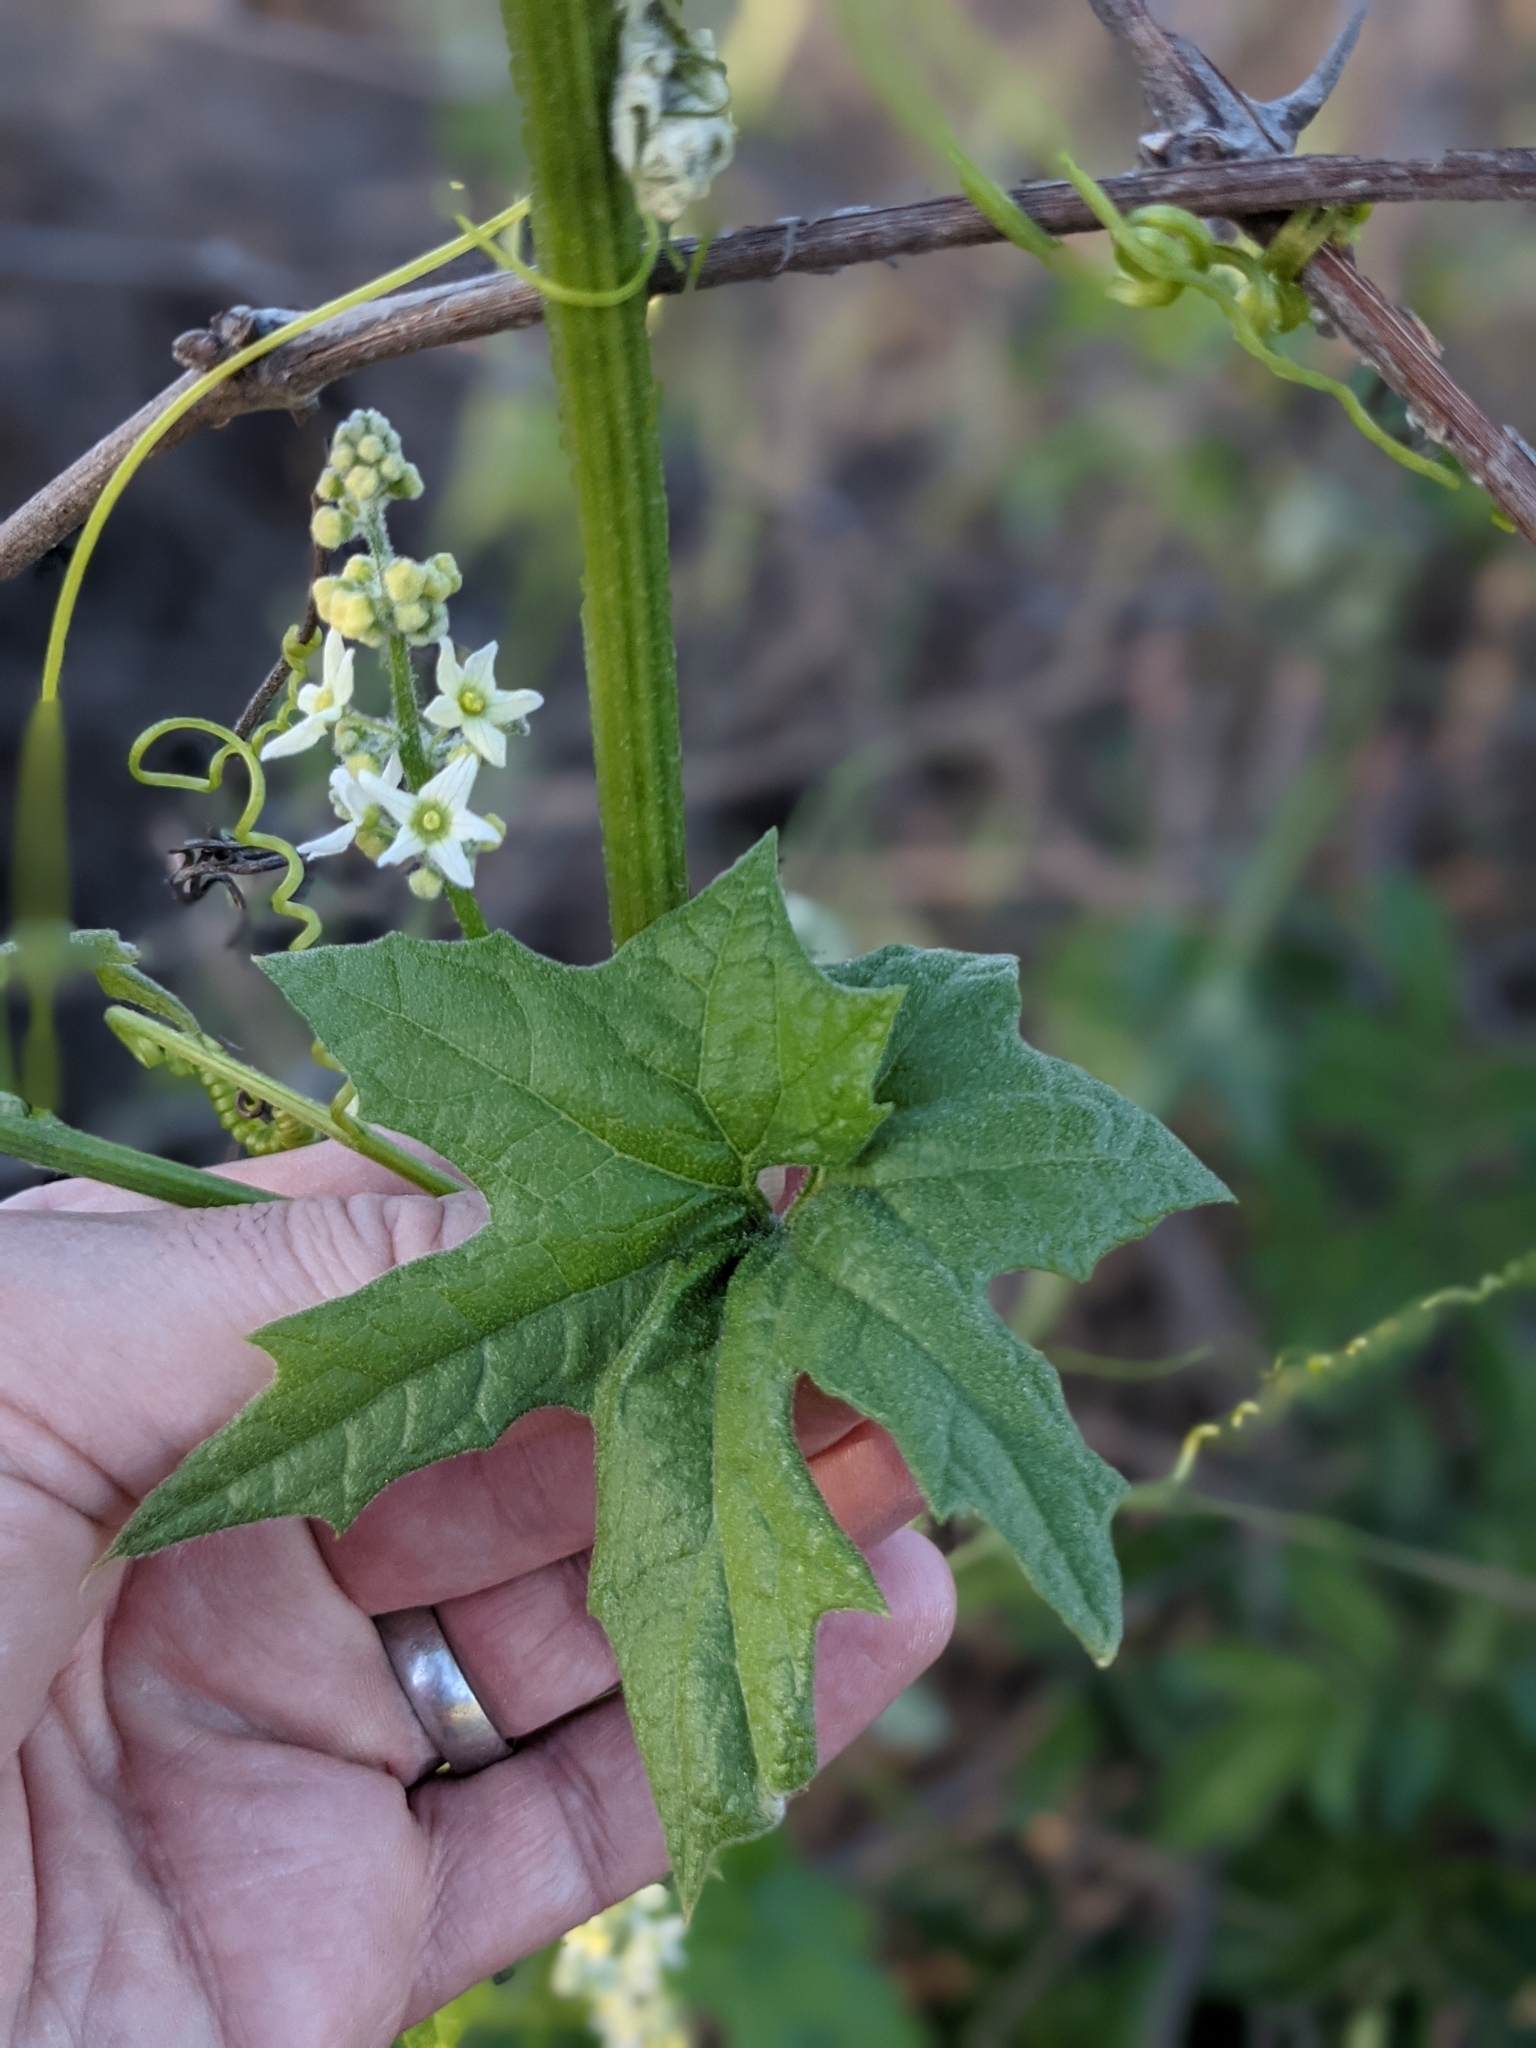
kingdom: Plantae
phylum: Tracheophyta
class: Magnoliopsida
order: Cucurbitales
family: Cucurbitaceae
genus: Marah
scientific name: Marah fabacea
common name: California manroot
